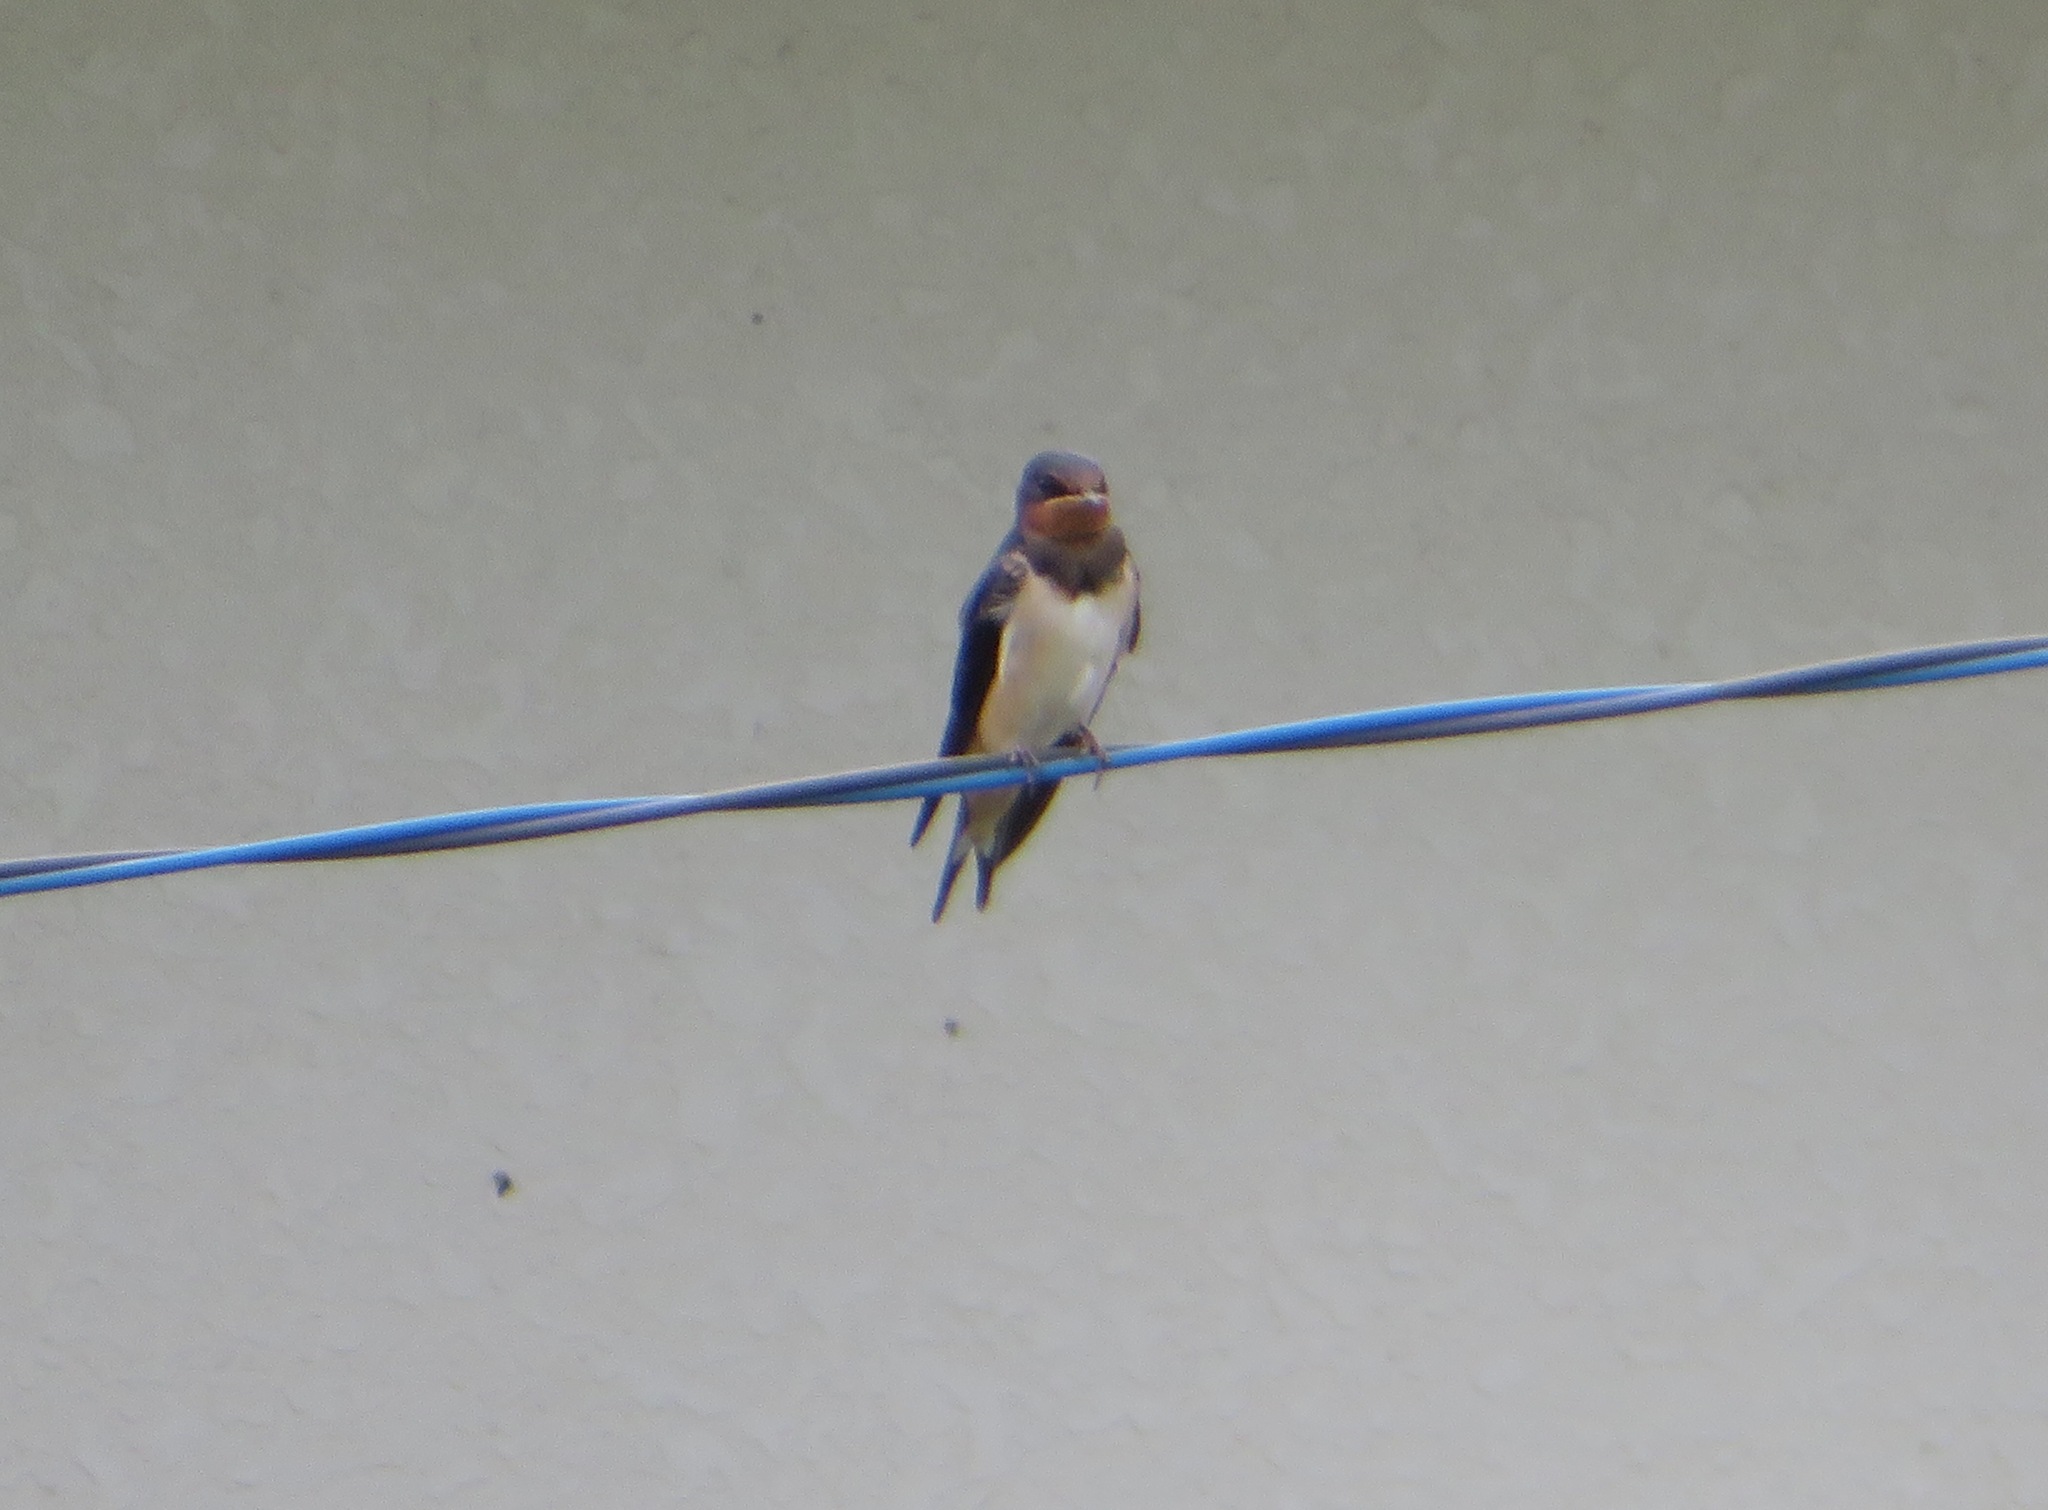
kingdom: Animalia
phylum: Chordata
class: Aves
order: Passeriformes
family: Hirundinidae
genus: Hirundo
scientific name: Hirundo rustica
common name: Barn swallow
